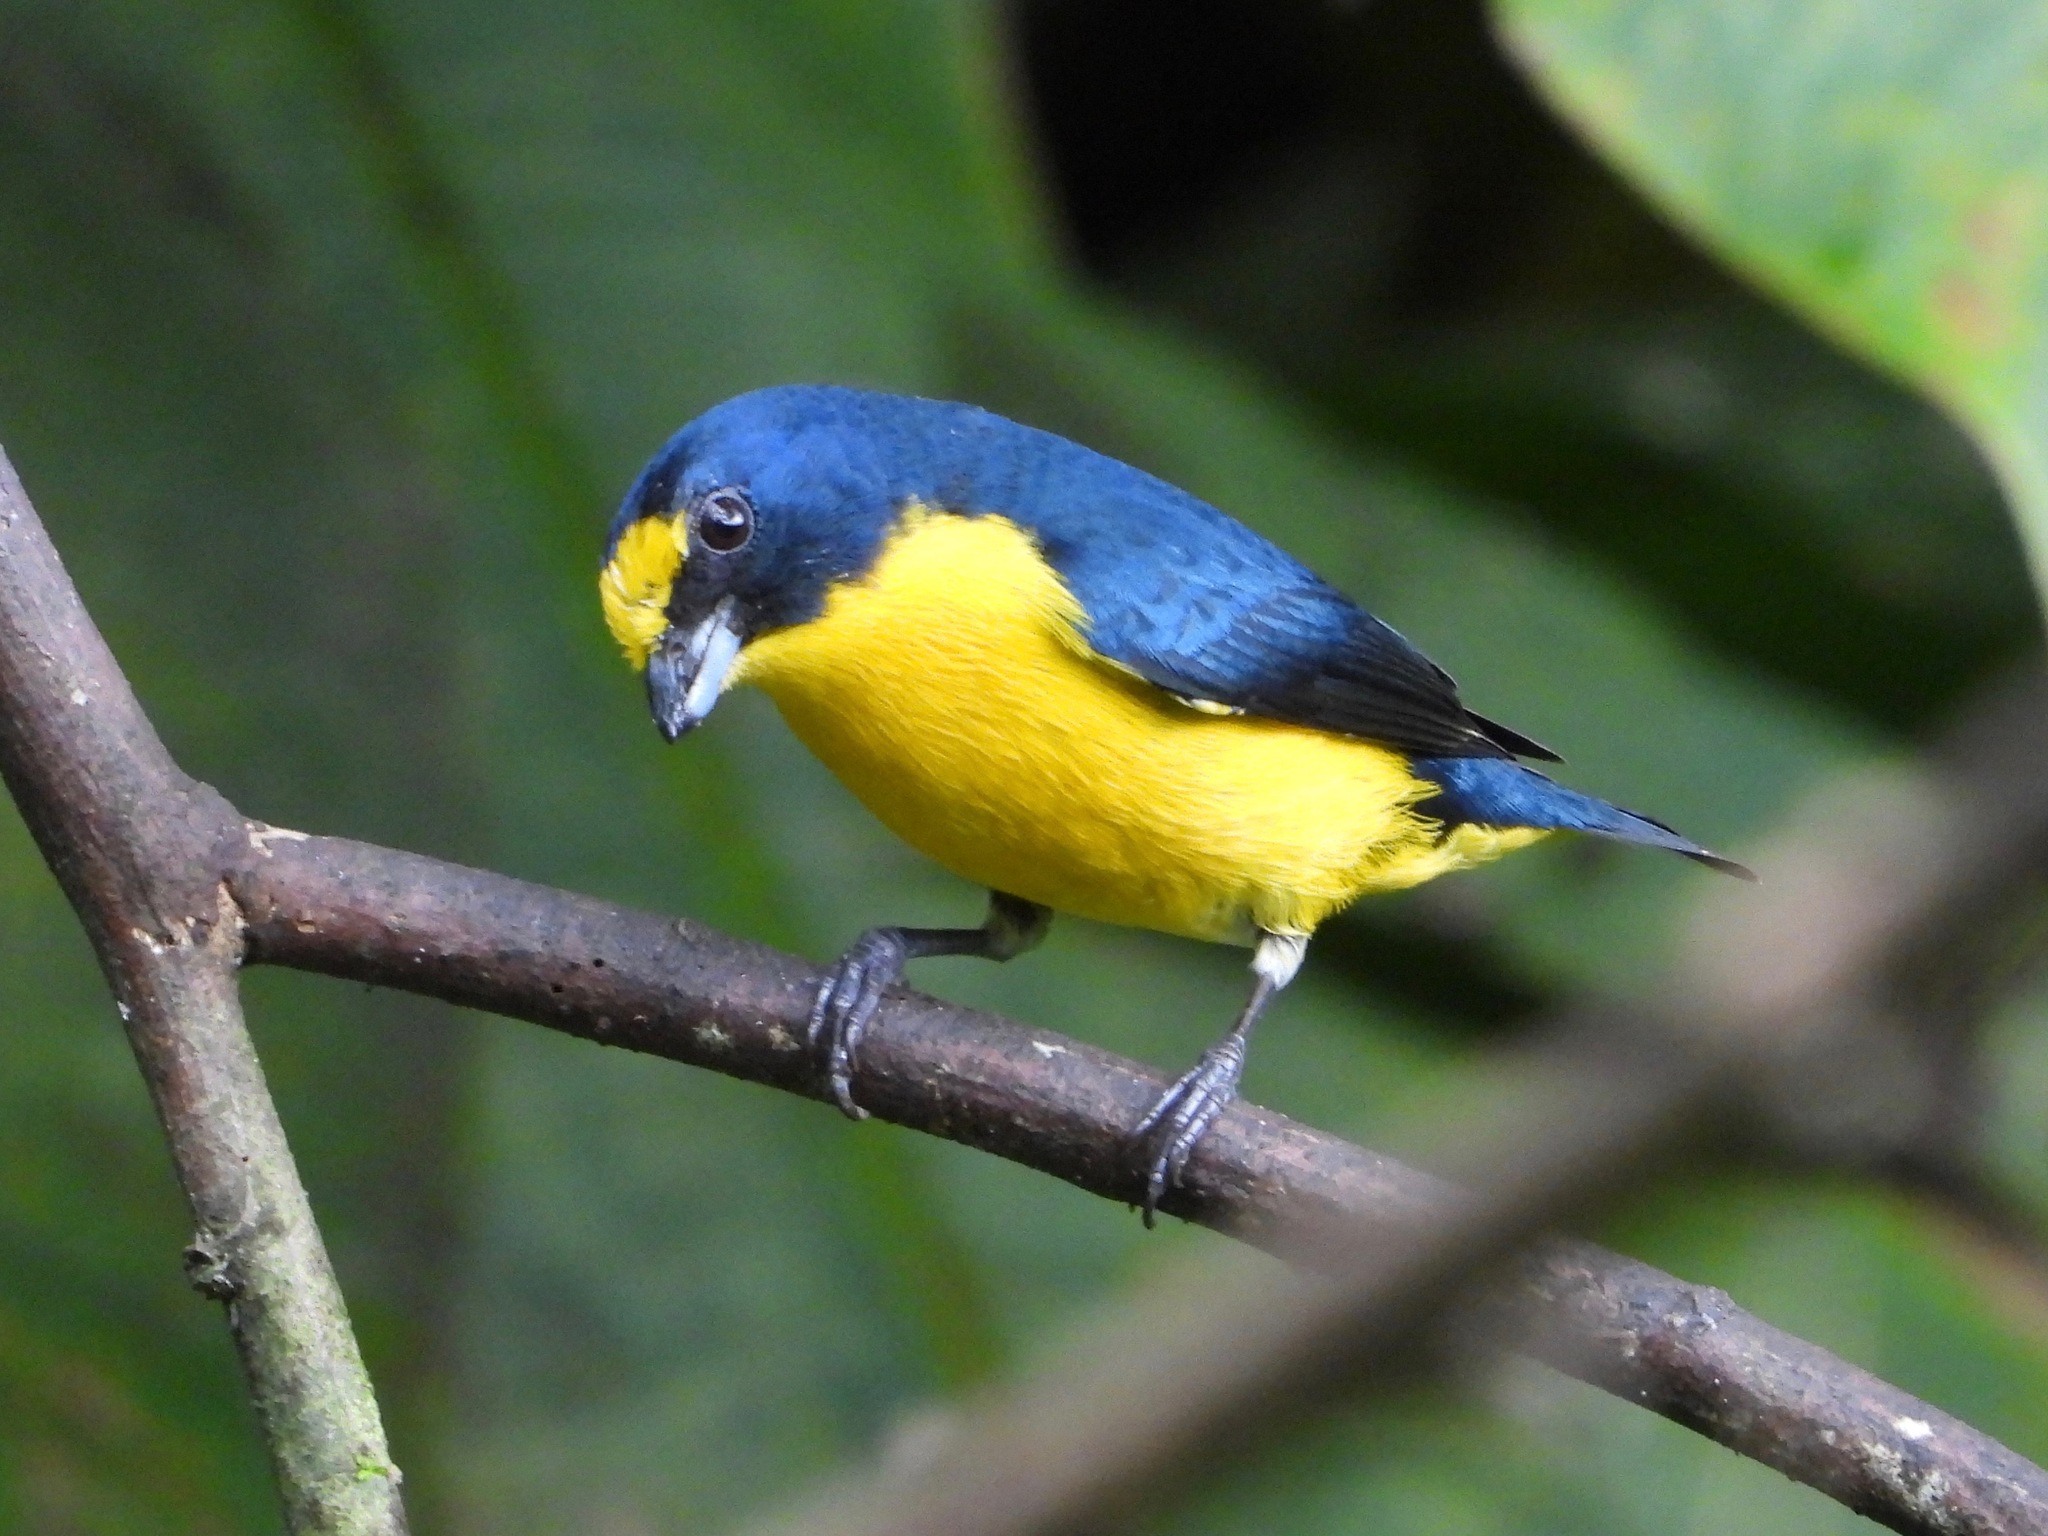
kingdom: Animalia
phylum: Chordata
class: Aves
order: Passeriformes
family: Fringillidae
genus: Euphonia
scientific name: Euphonia hirundinacea
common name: Yellow-throated euphonia
